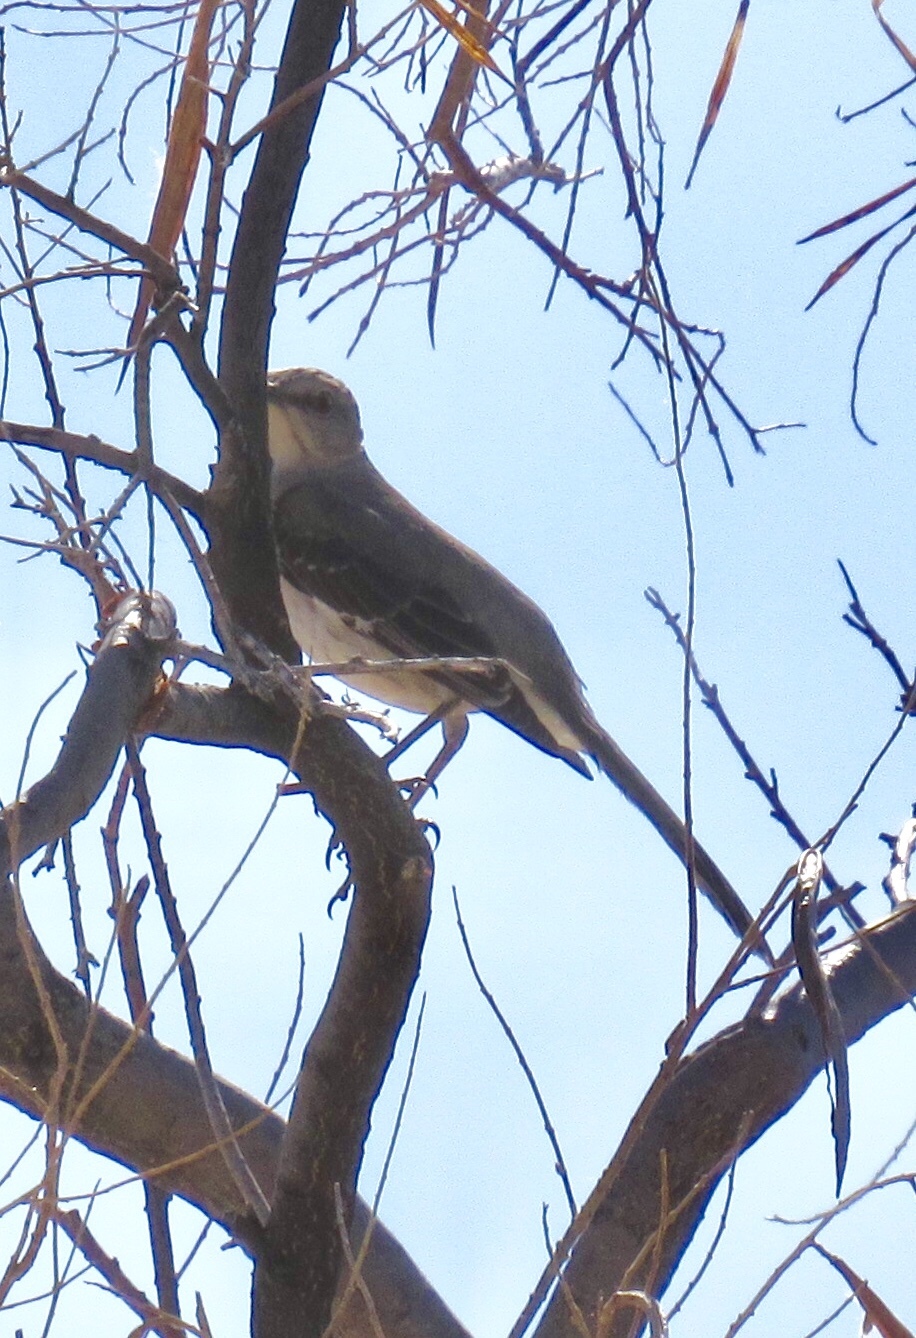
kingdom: Animalia
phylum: Chordata
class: Aves
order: Passeriformes
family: Mimidae
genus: Mimus
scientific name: Mimus polyglottos
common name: Northern mockingbird
